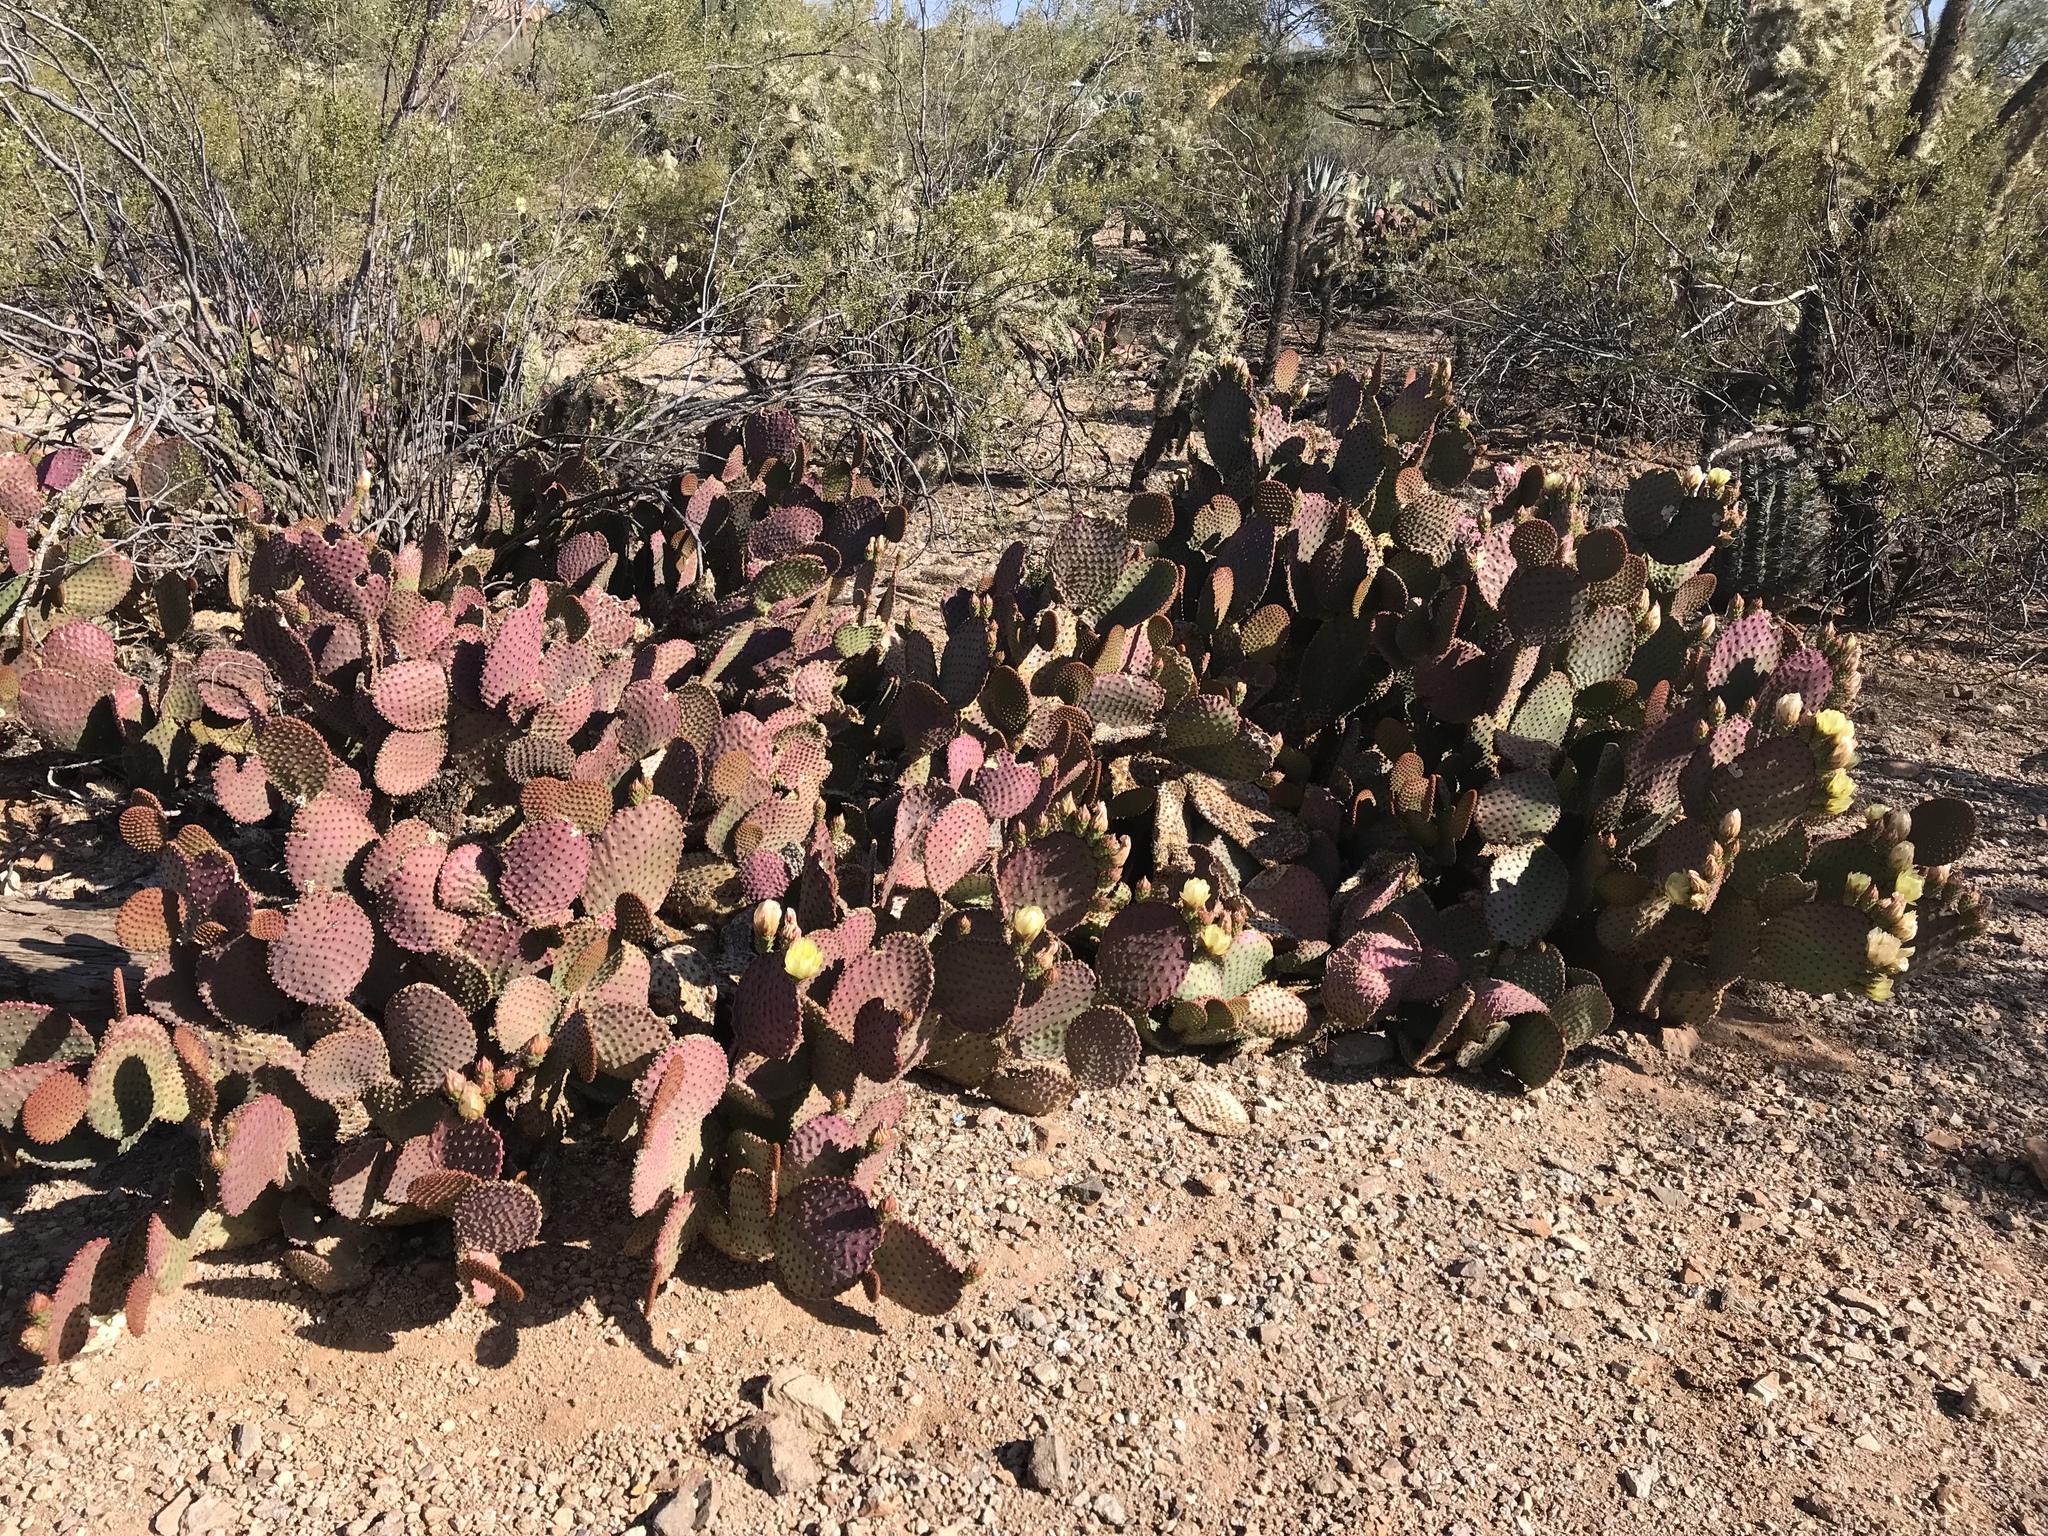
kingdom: Plantae
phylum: Tracheophyta
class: Magnoliopsida
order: Caryophyllales
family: Cactaceae
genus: Opuntia
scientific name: Opuntia microdasys
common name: Angel's-wings
